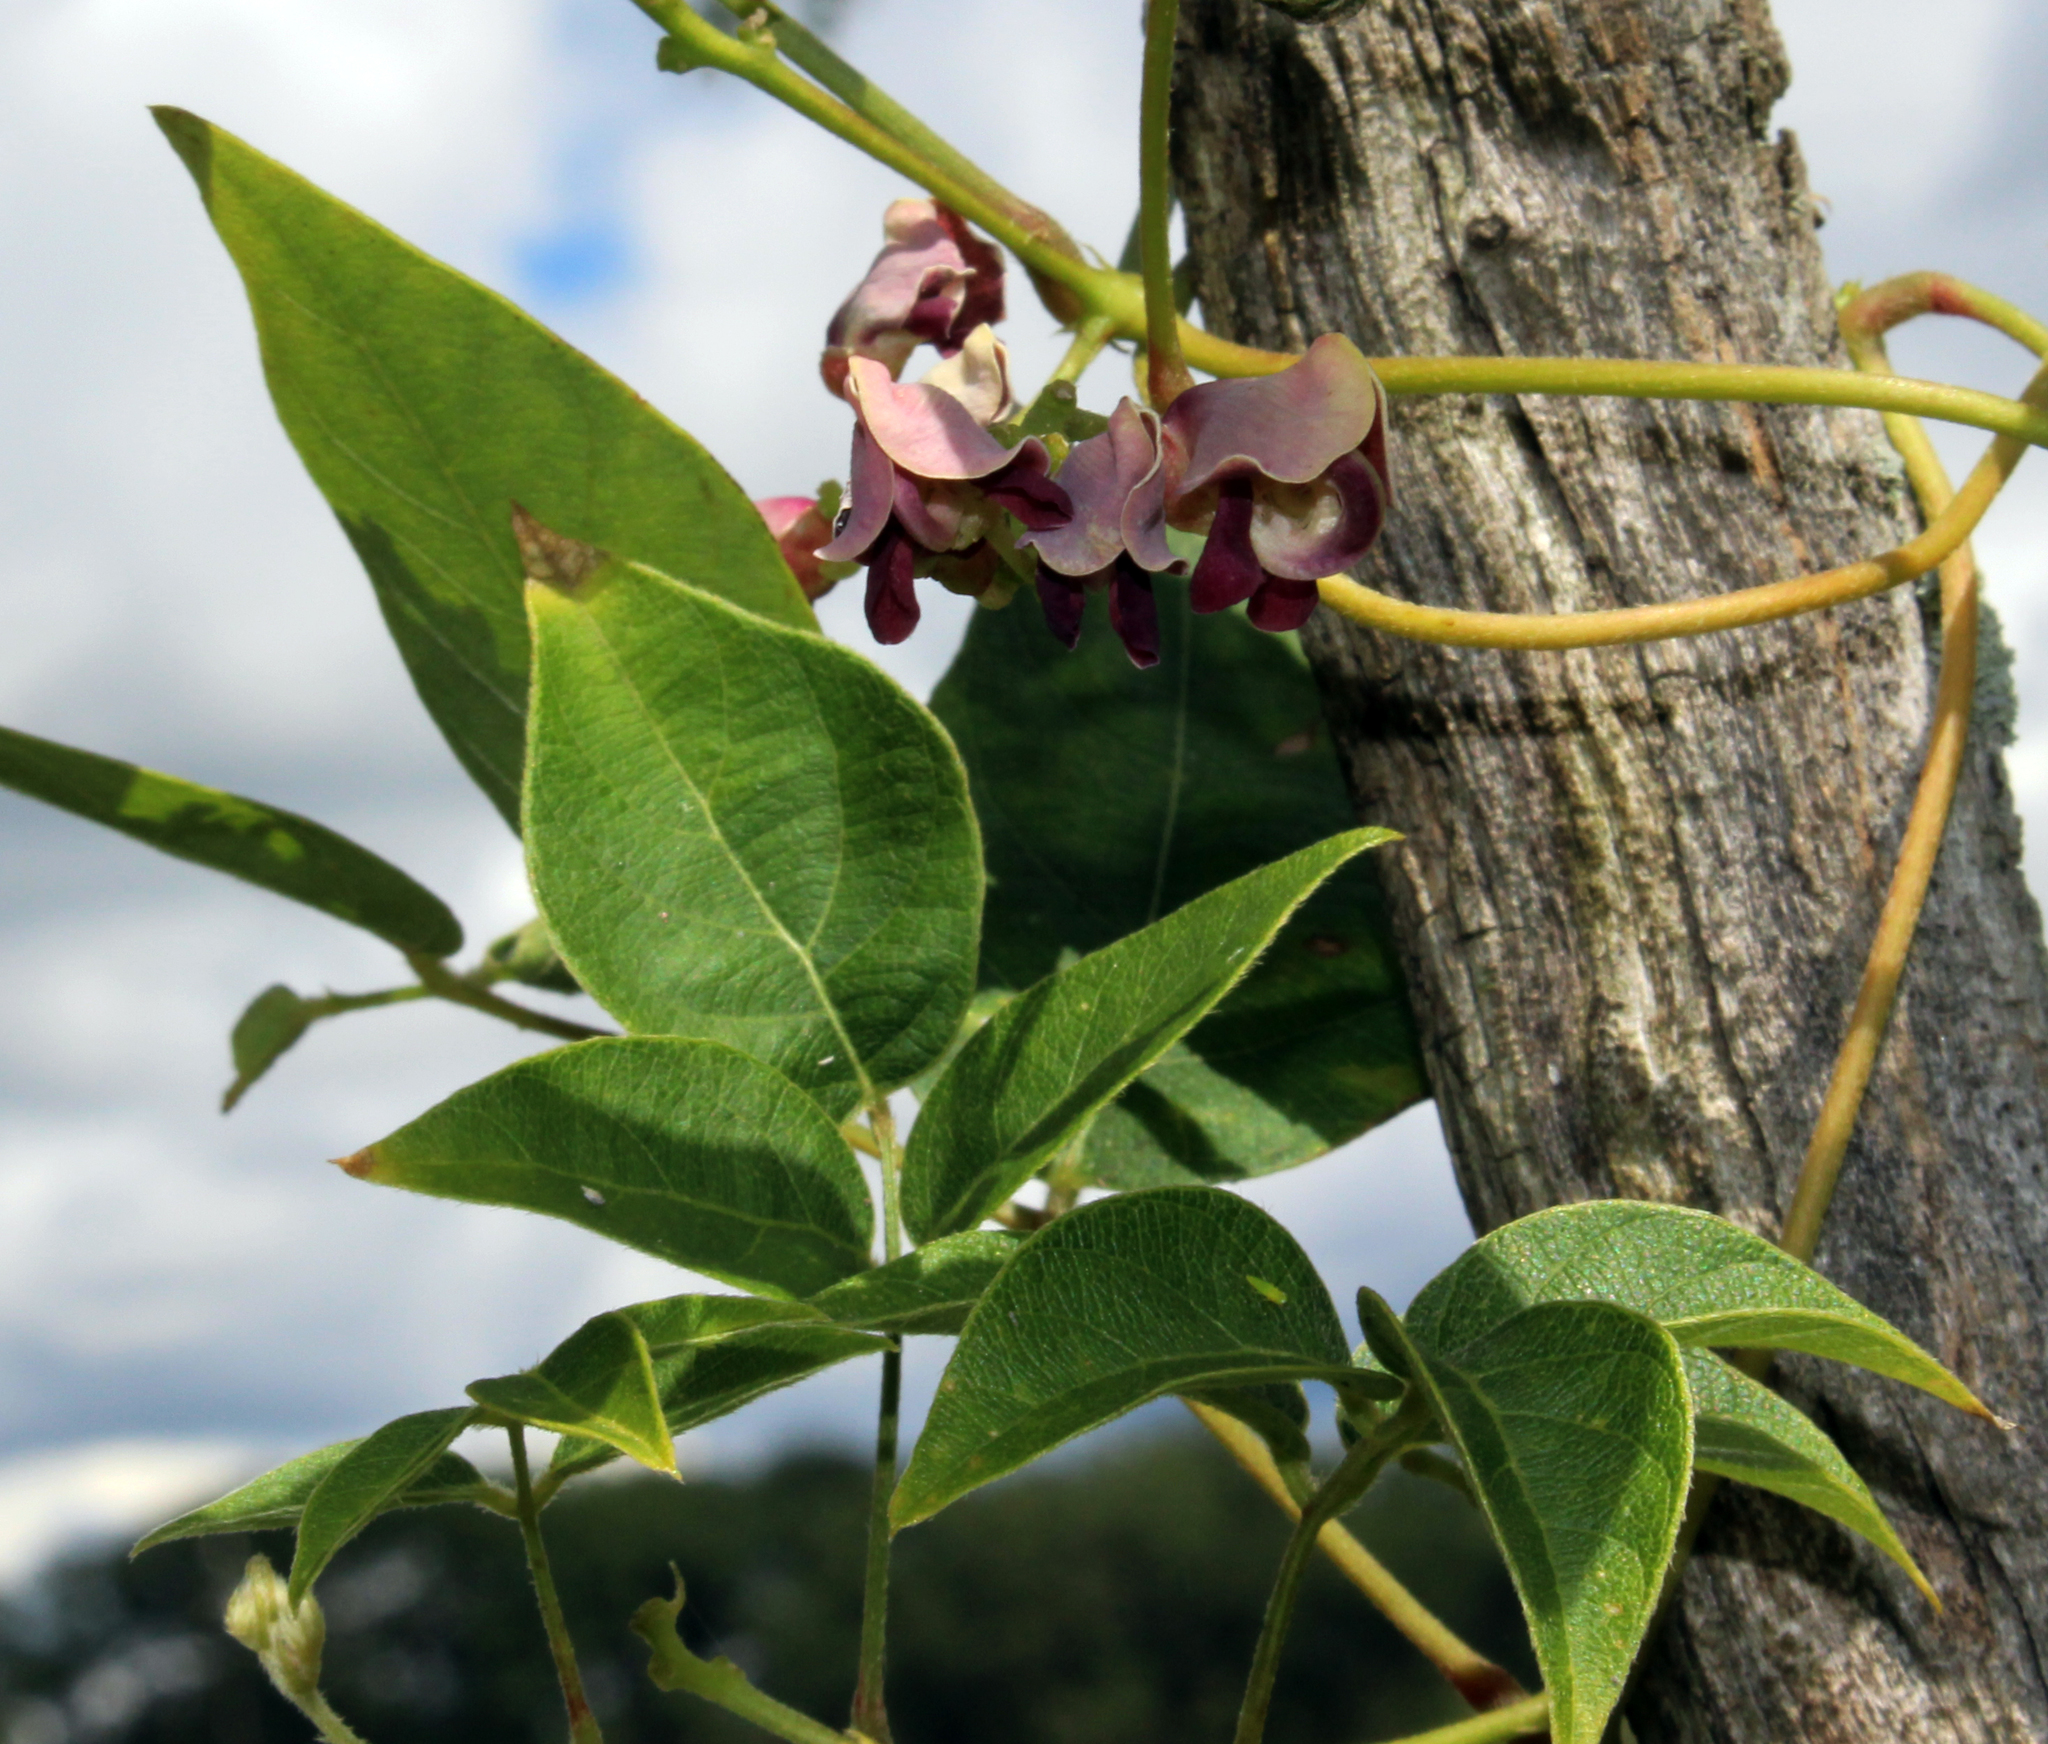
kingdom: Plantae
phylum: Tracheophyta
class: Magnoliopsida
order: Fabales
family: Fabaceae
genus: Apios
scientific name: Apios americana
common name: American potato-bean
